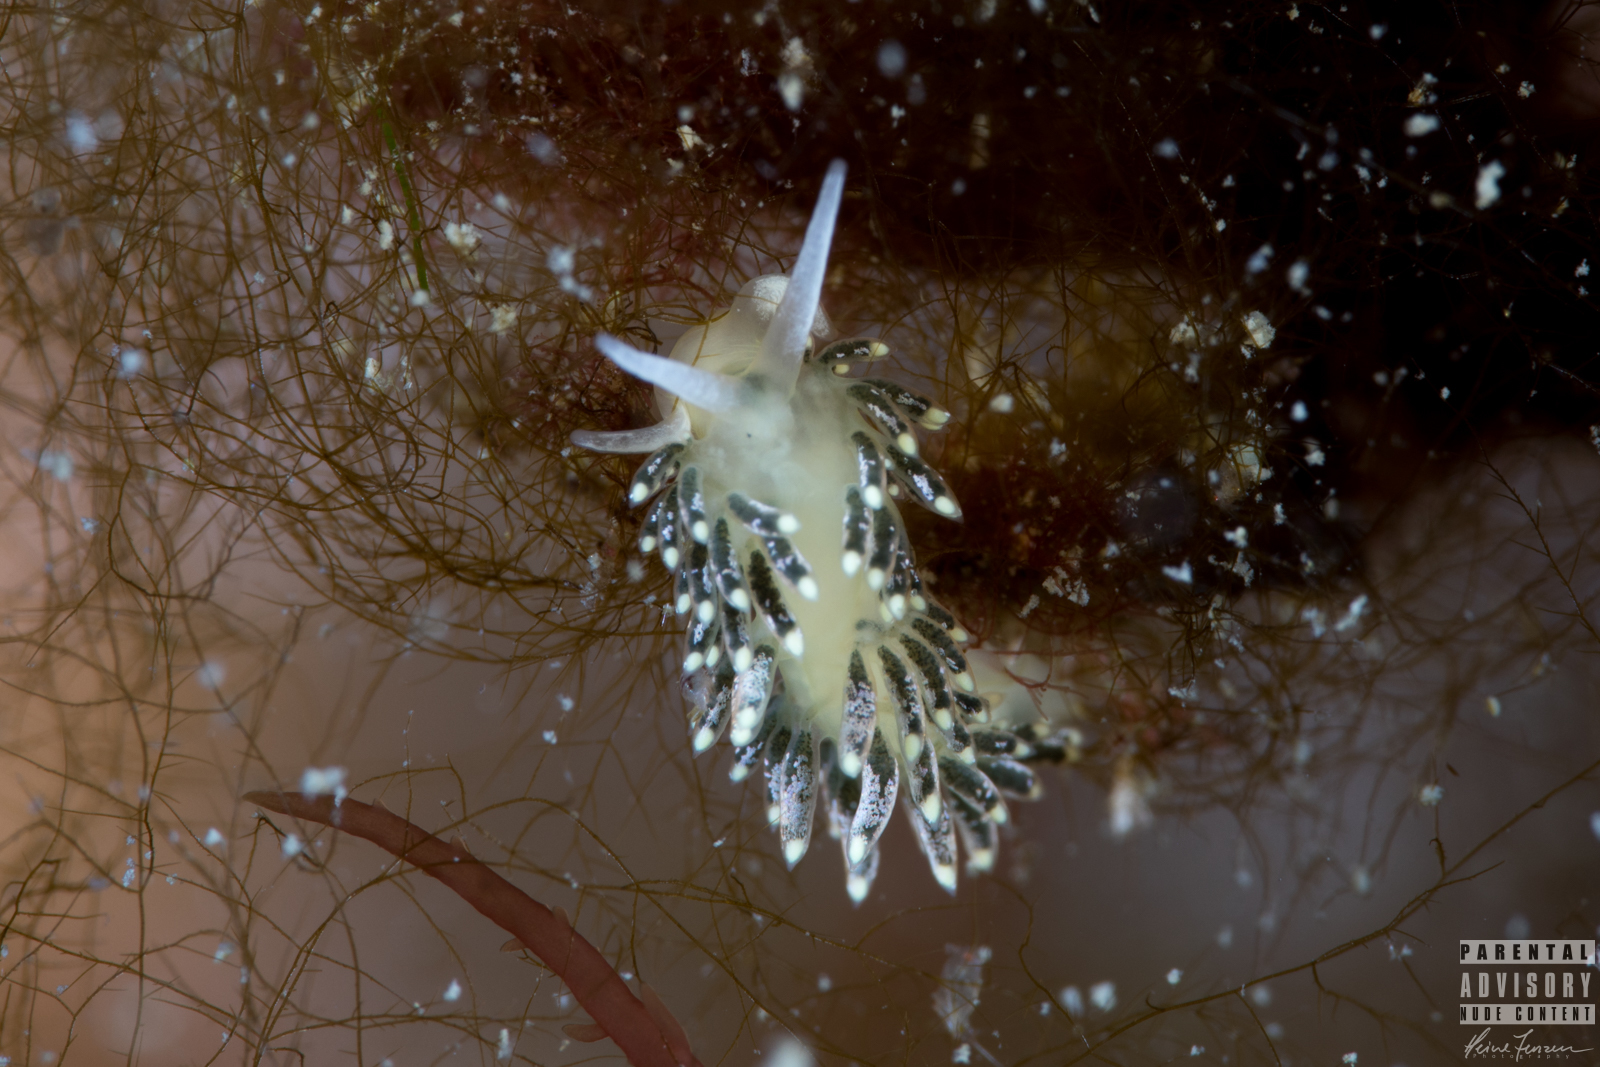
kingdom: Animalia
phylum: Mollusca
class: Gastropoda
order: Nudibranchia
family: Trinchesiidae
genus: Diaphoreolis
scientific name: Diaphoreolis viridis
